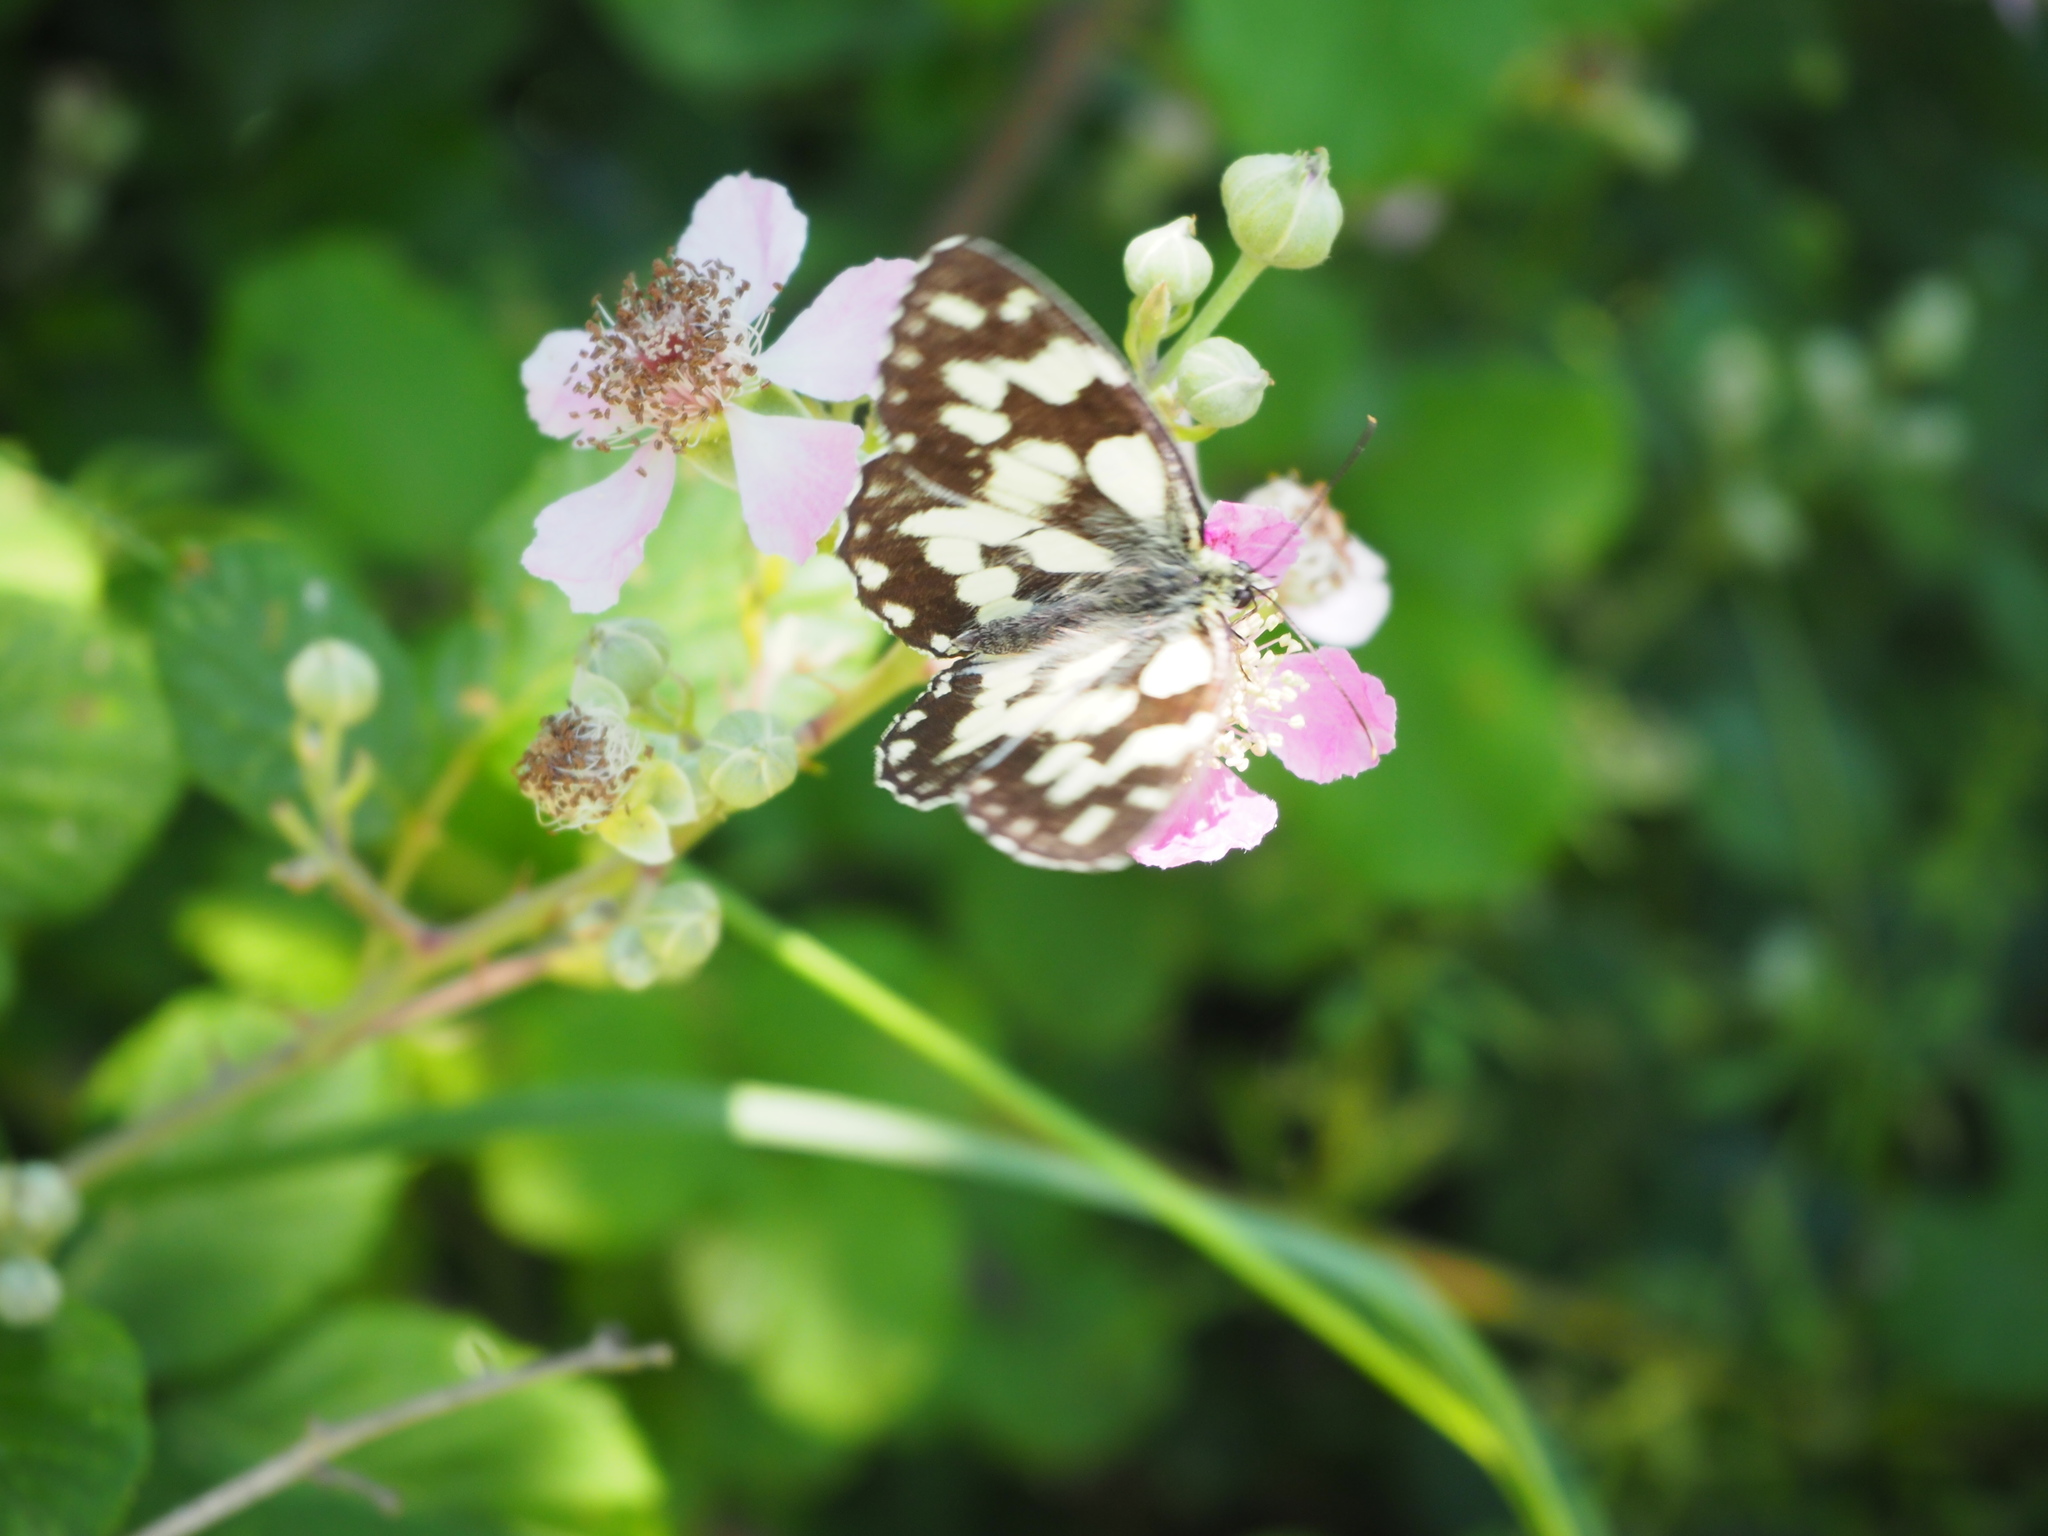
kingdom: Animalia
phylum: Arthropoda
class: Insecta
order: Lepidoptera
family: Nymphalidae
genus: Melanargia
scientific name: Melanargia galathea
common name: Marbled white
